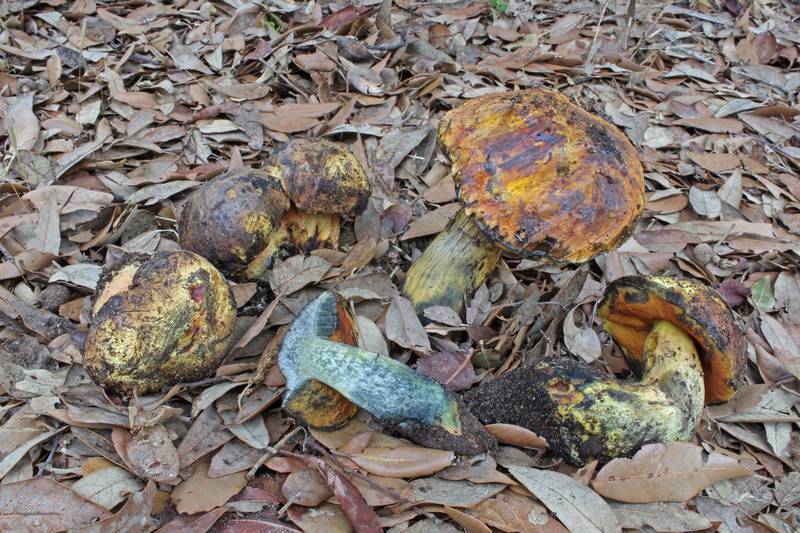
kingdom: Fungi
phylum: Basidiomycota
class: Agaricomycetes
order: Boletales
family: Boletaceae
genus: Neoboletus
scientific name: Neoboletus xanthopus
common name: False yellow bolete
